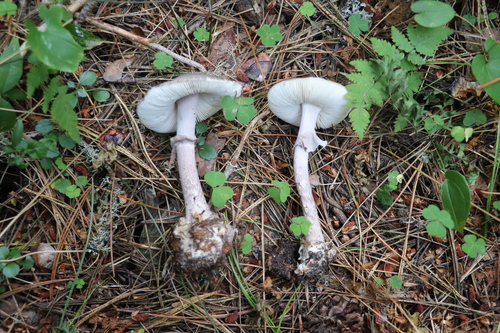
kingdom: Fungi
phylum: Basidiomycota
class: Agaricomycetes
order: Agaricales
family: Amanitaceae
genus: Amanita
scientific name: Amanita porphyria
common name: Grey veiled amanita
